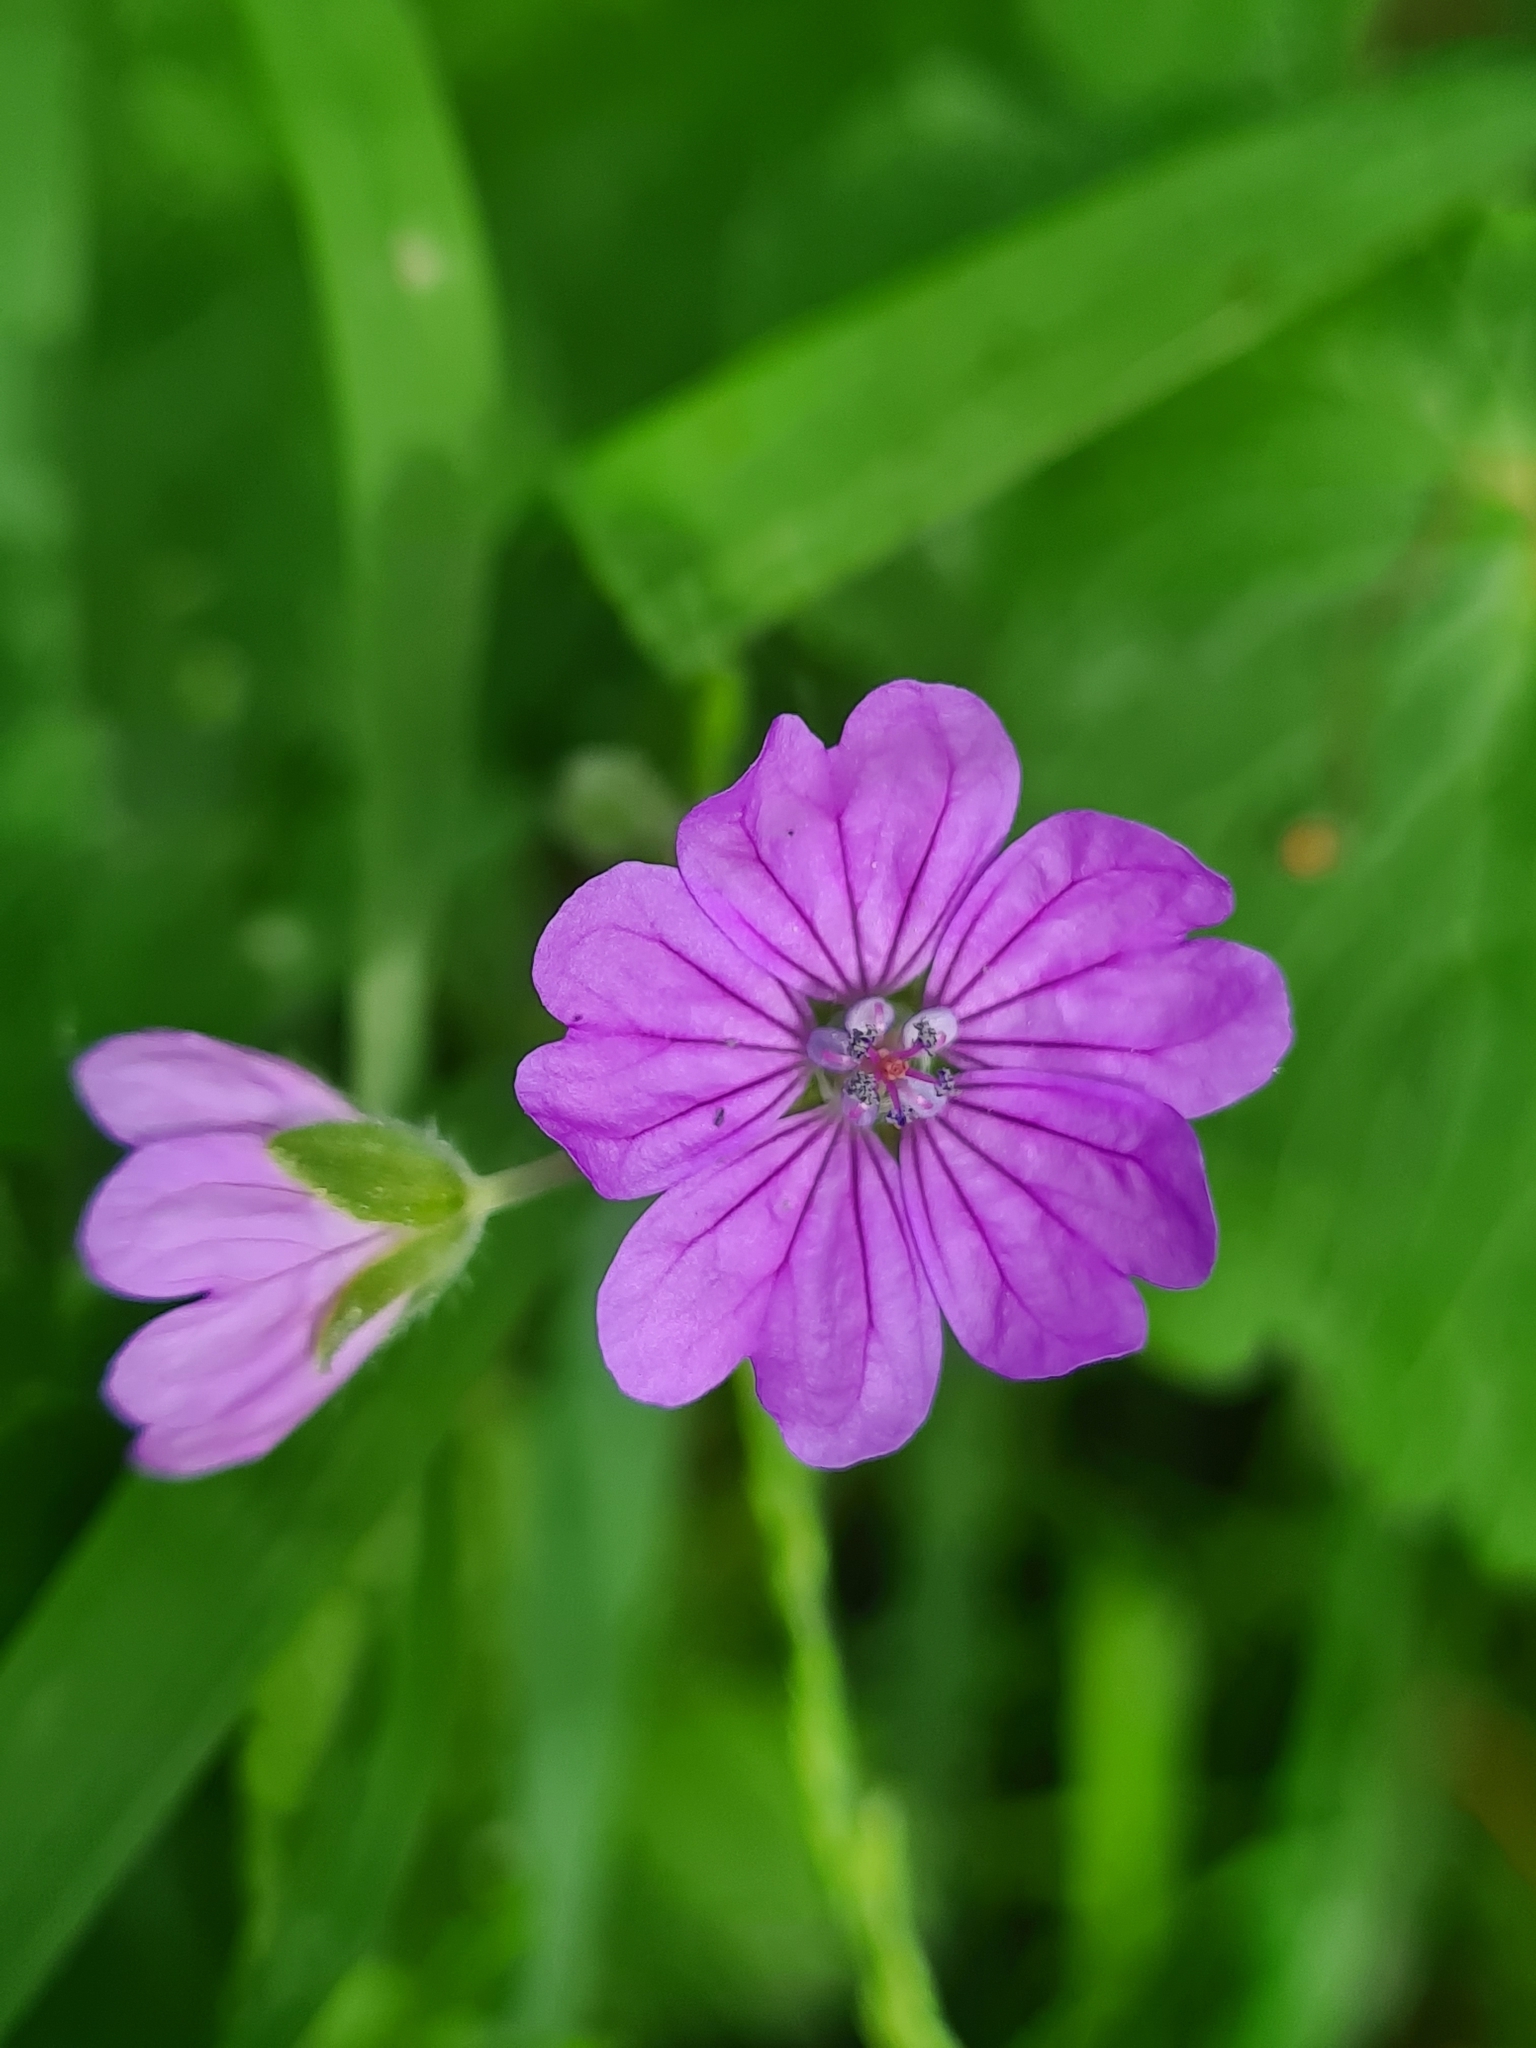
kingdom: Plantae
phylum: Tracheophyta
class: Magnoliopsida
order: Geraniales
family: Geraniaceae
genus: Geranium
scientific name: Geranium pyrenaicum
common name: Hedgerow crane's-bill
